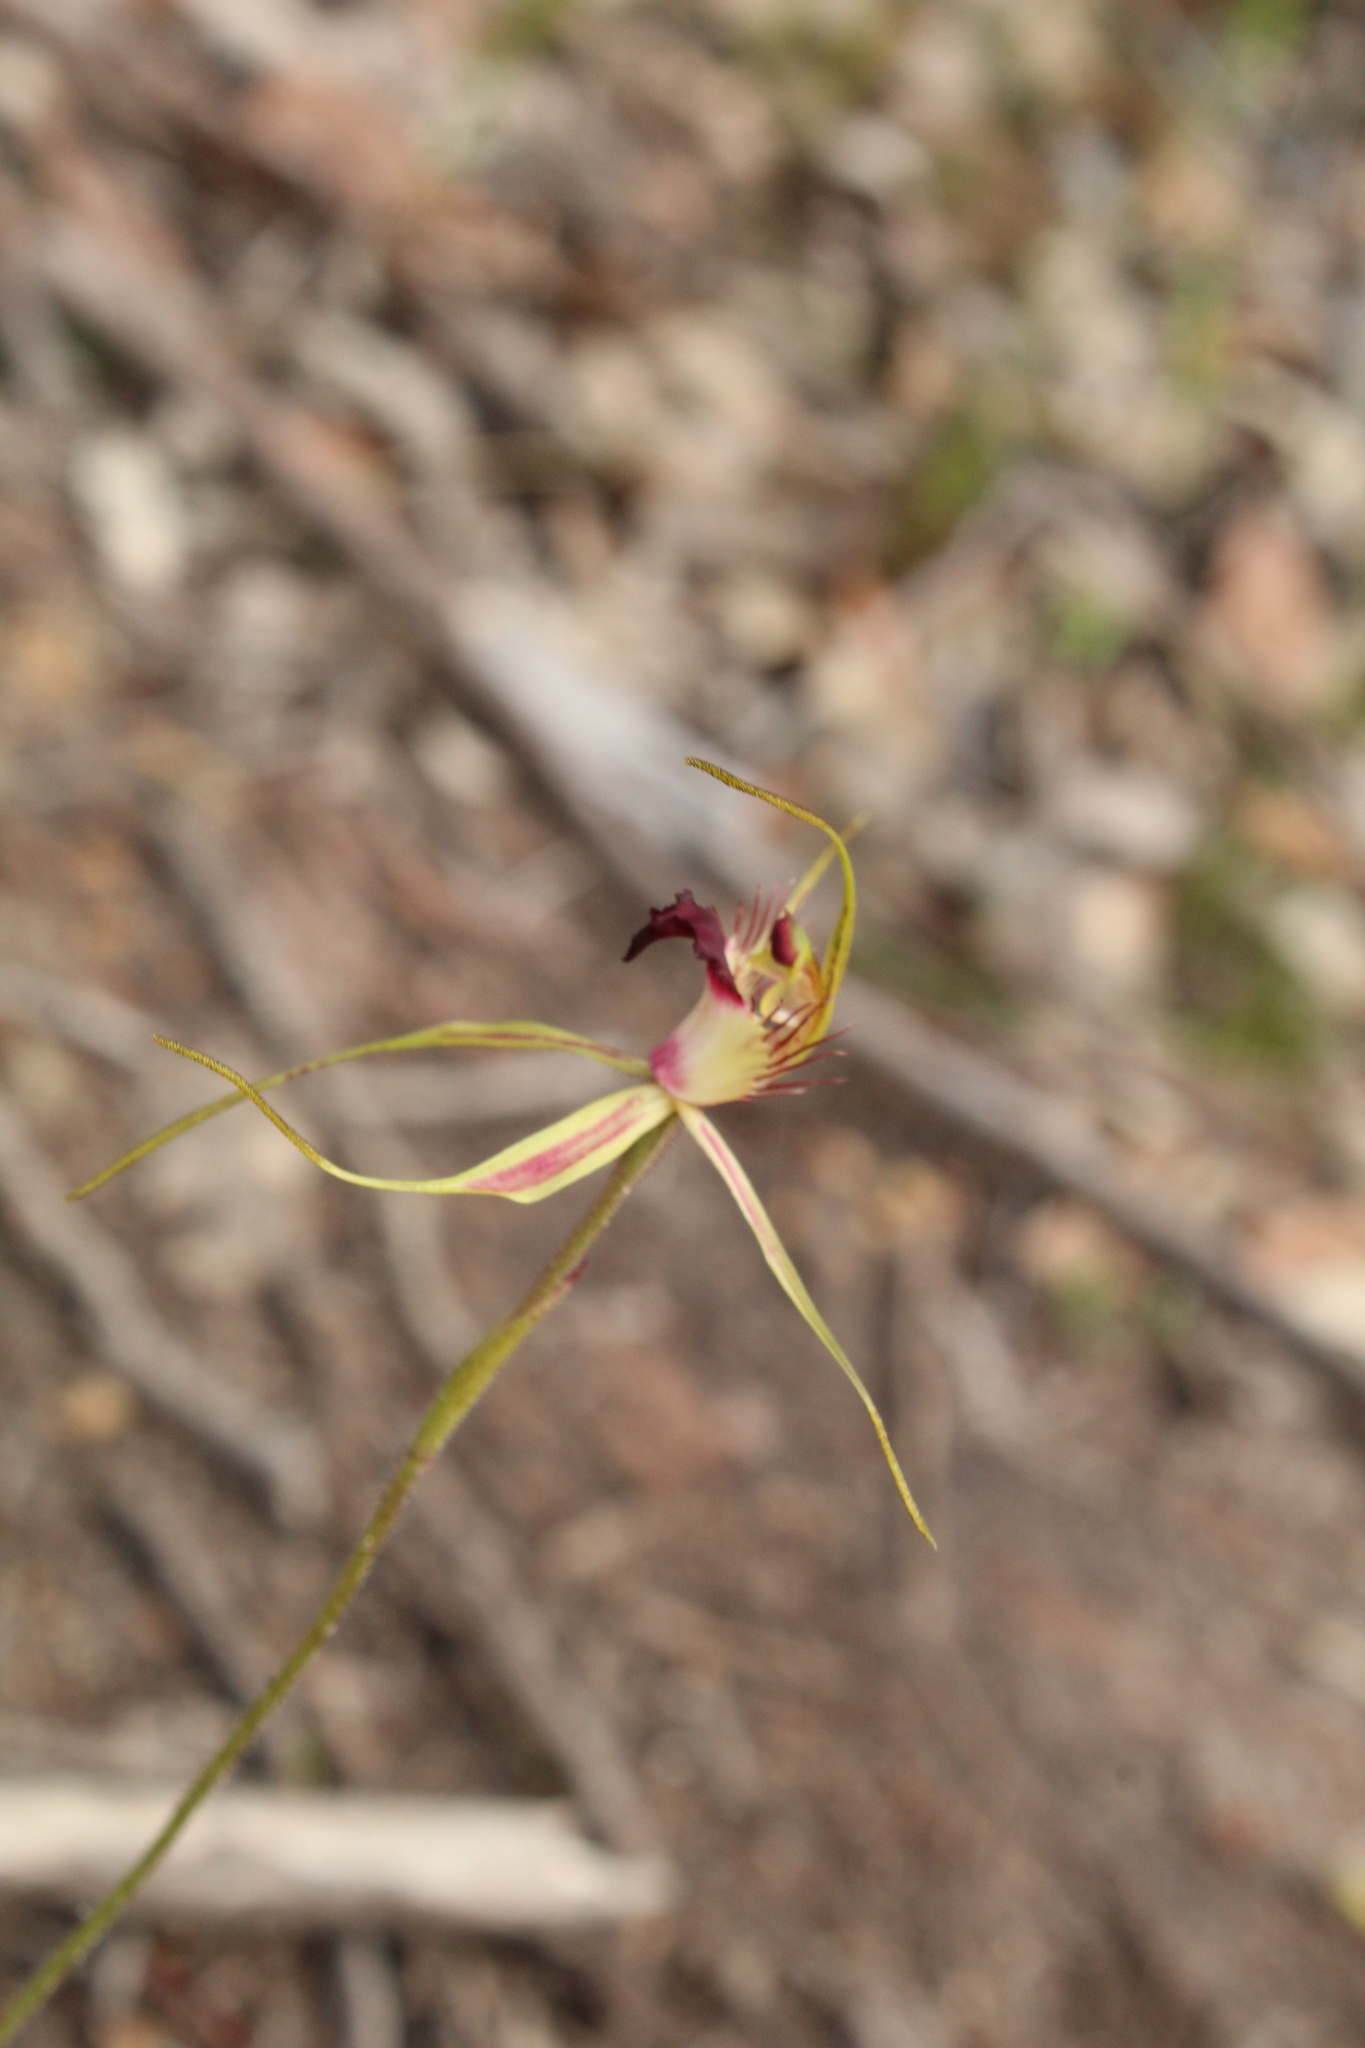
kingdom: Plantae
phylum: Tracheophyta
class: Liliopsida
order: Asparagales
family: Orchidaceae
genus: Caladenia
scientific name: Caladenia brownii
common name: Kari spider orchid
